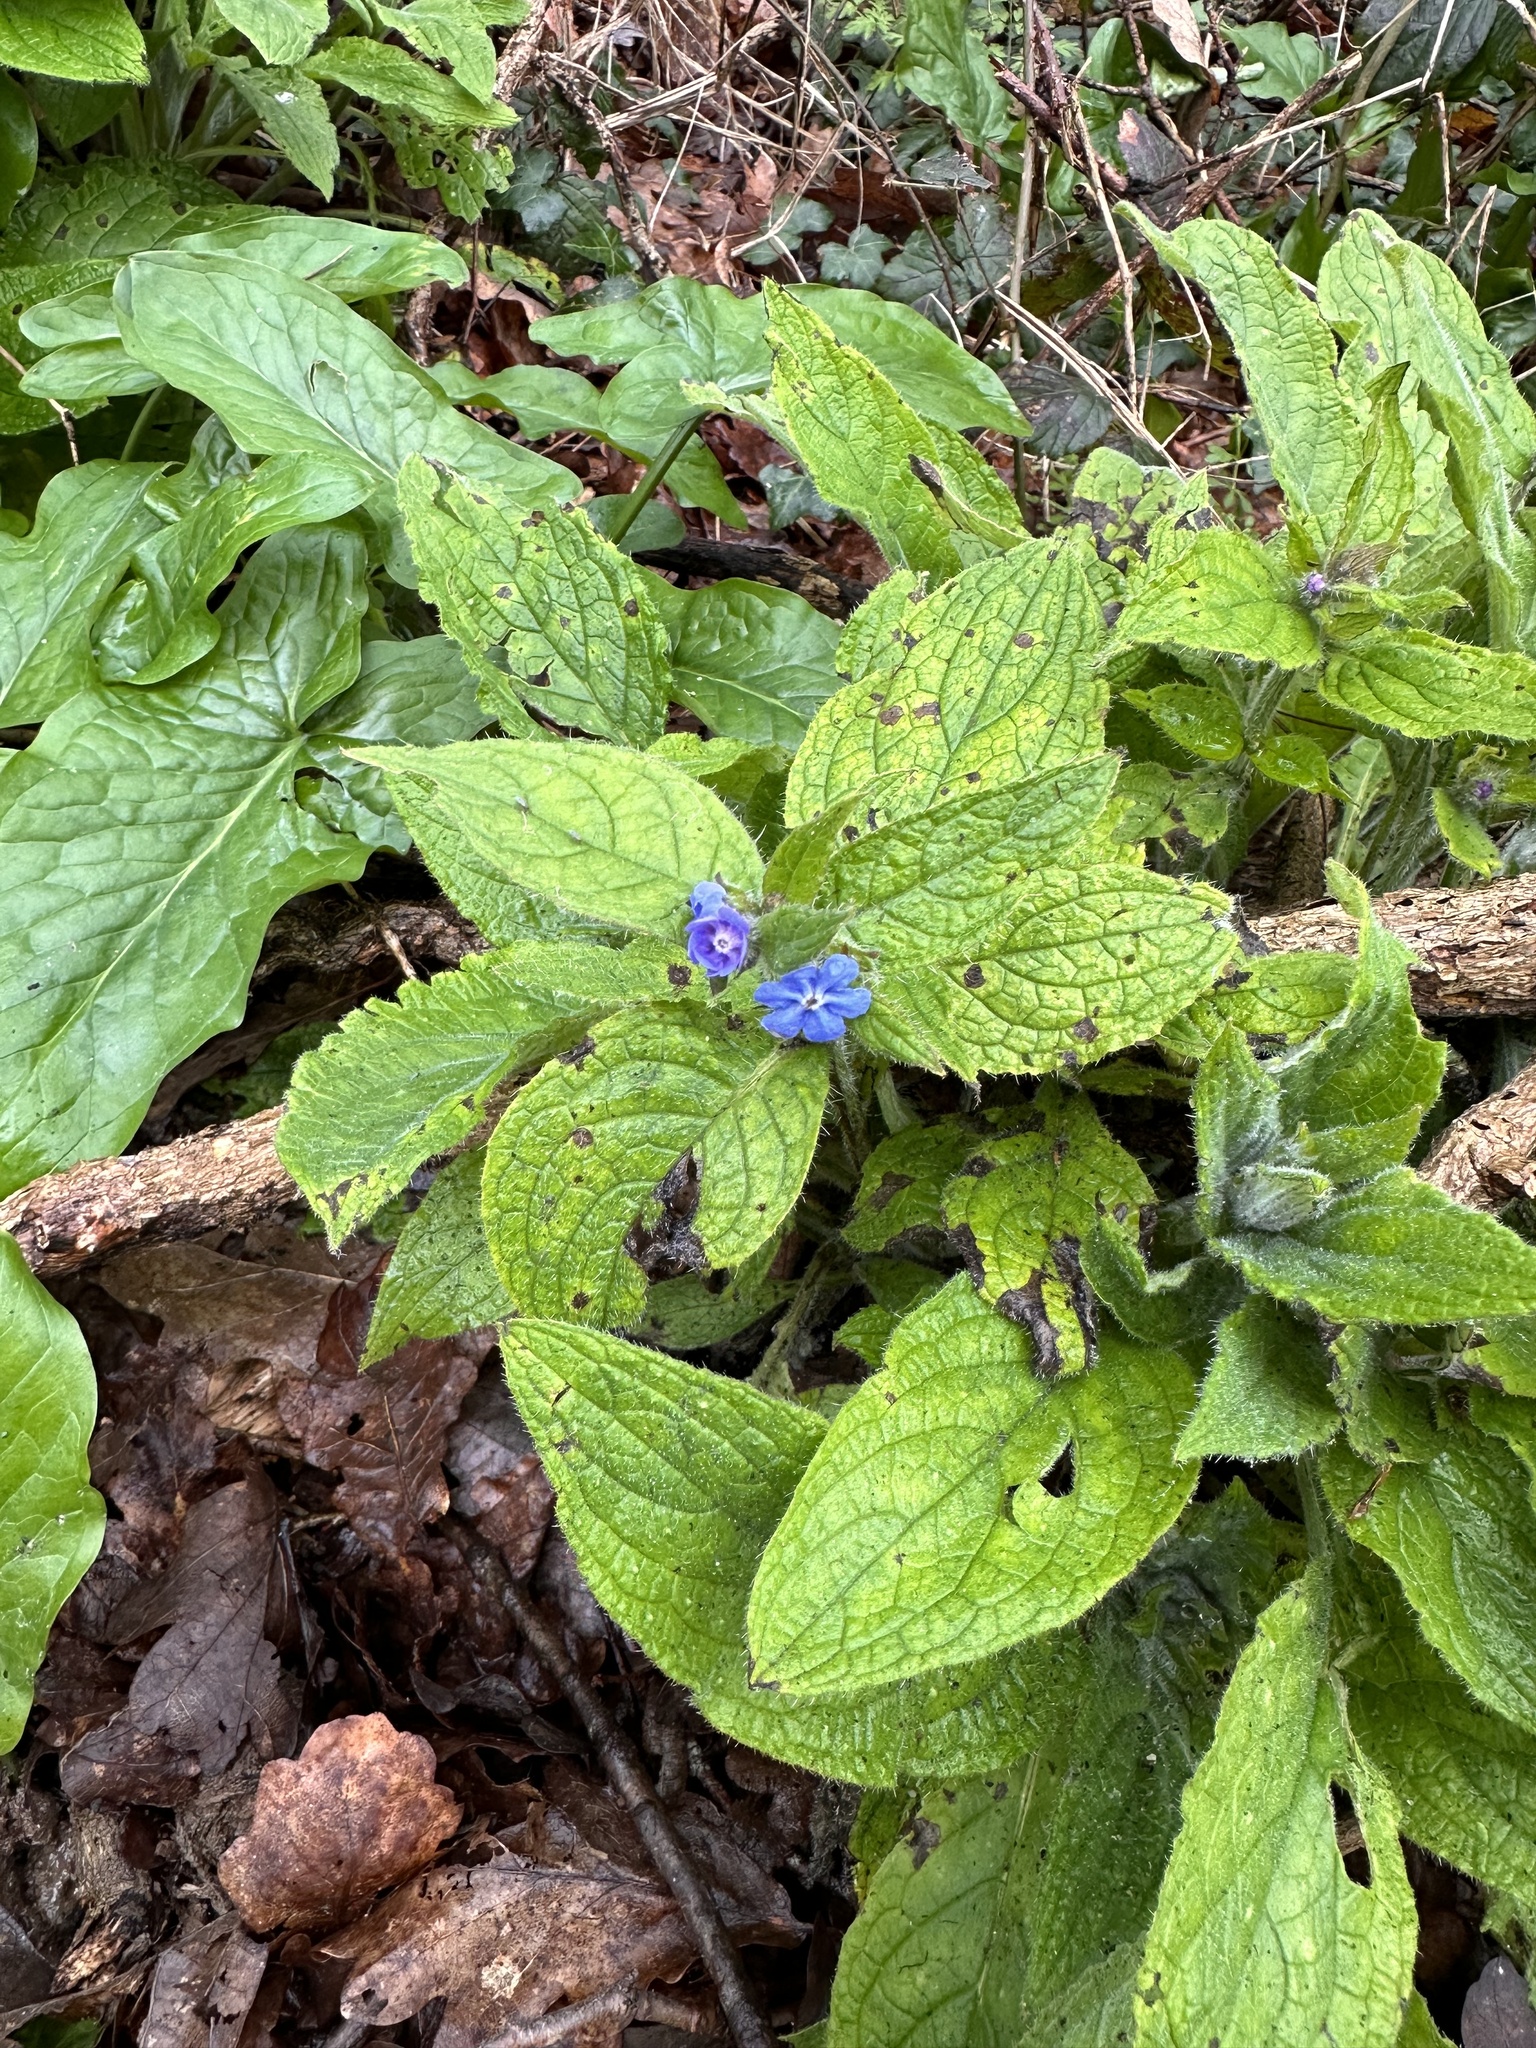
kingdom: Plantae
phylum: Tracheophyta
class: Magnoliopsida
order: Boraginales
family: Boraginaceae
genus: Pentaglottis
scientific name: Pentaglottis sempervirens
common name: Green alkanet
